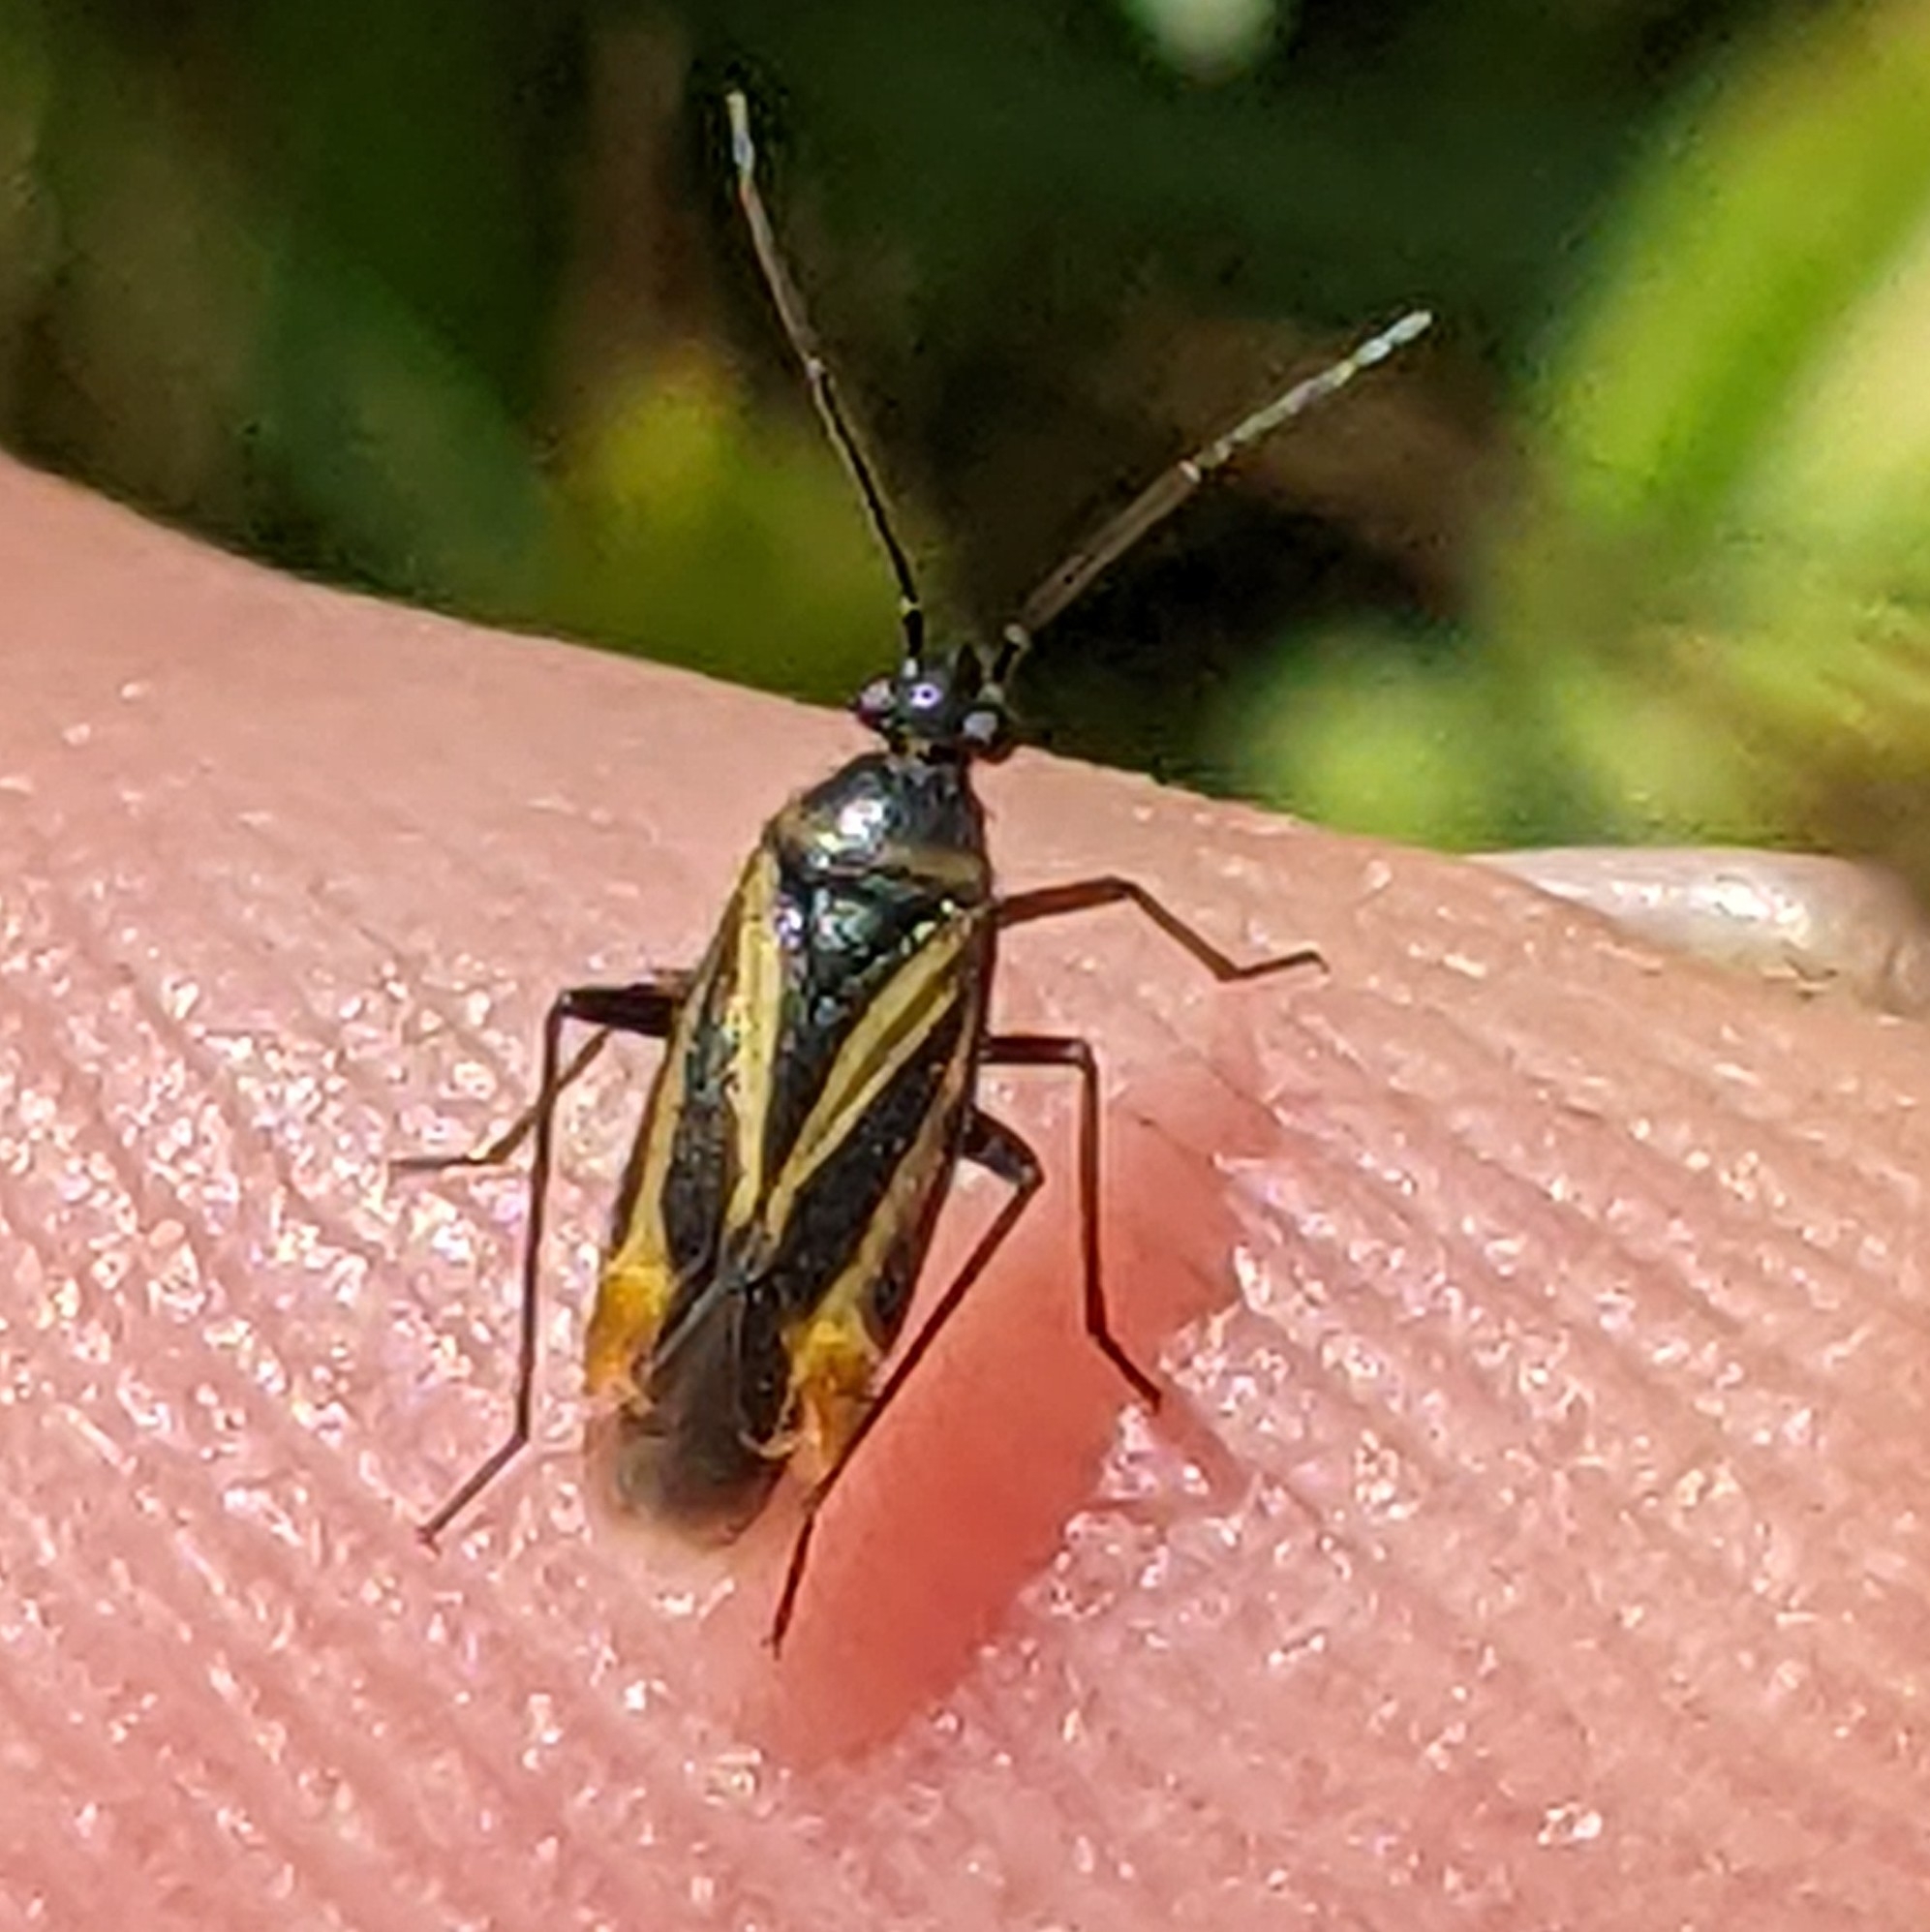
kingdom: Animalia
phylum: Arthropoda
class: Insecta
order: Hemiptera
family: Miridae
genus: Plagiognathus
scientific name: Plagiognathus moerens
